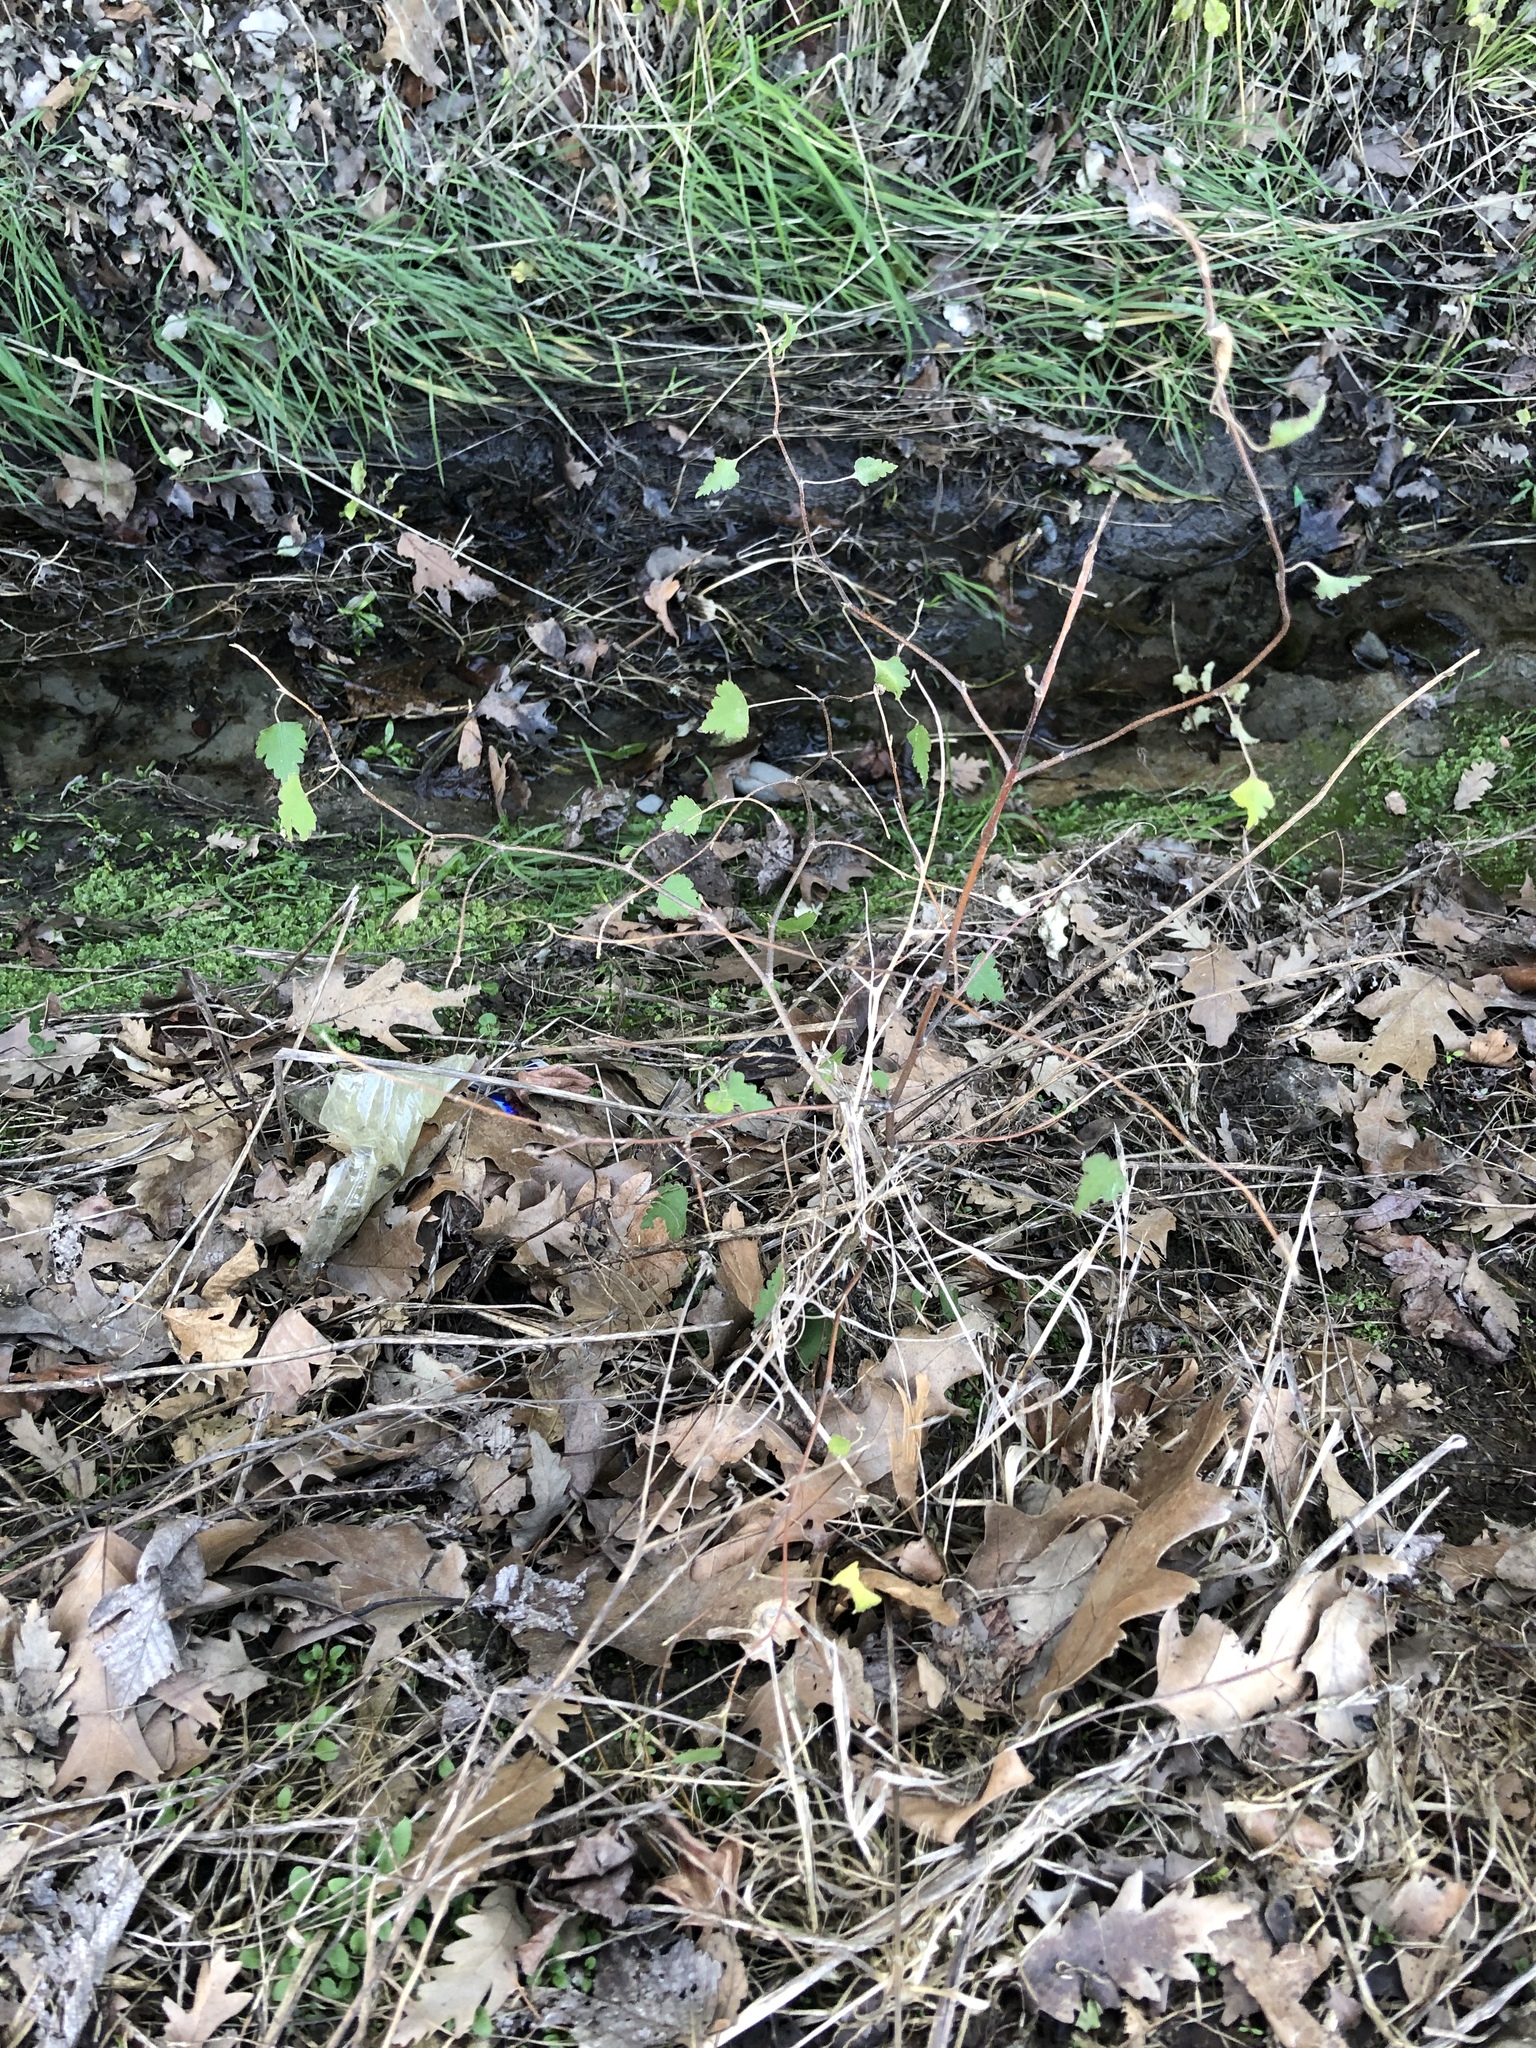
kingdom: Plantae
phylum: Tracheophyta
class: Magnoliopsida
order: Malvales
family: Malvaceae
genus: Plagianthus
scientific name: Plagianthus regius
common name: Manatu
